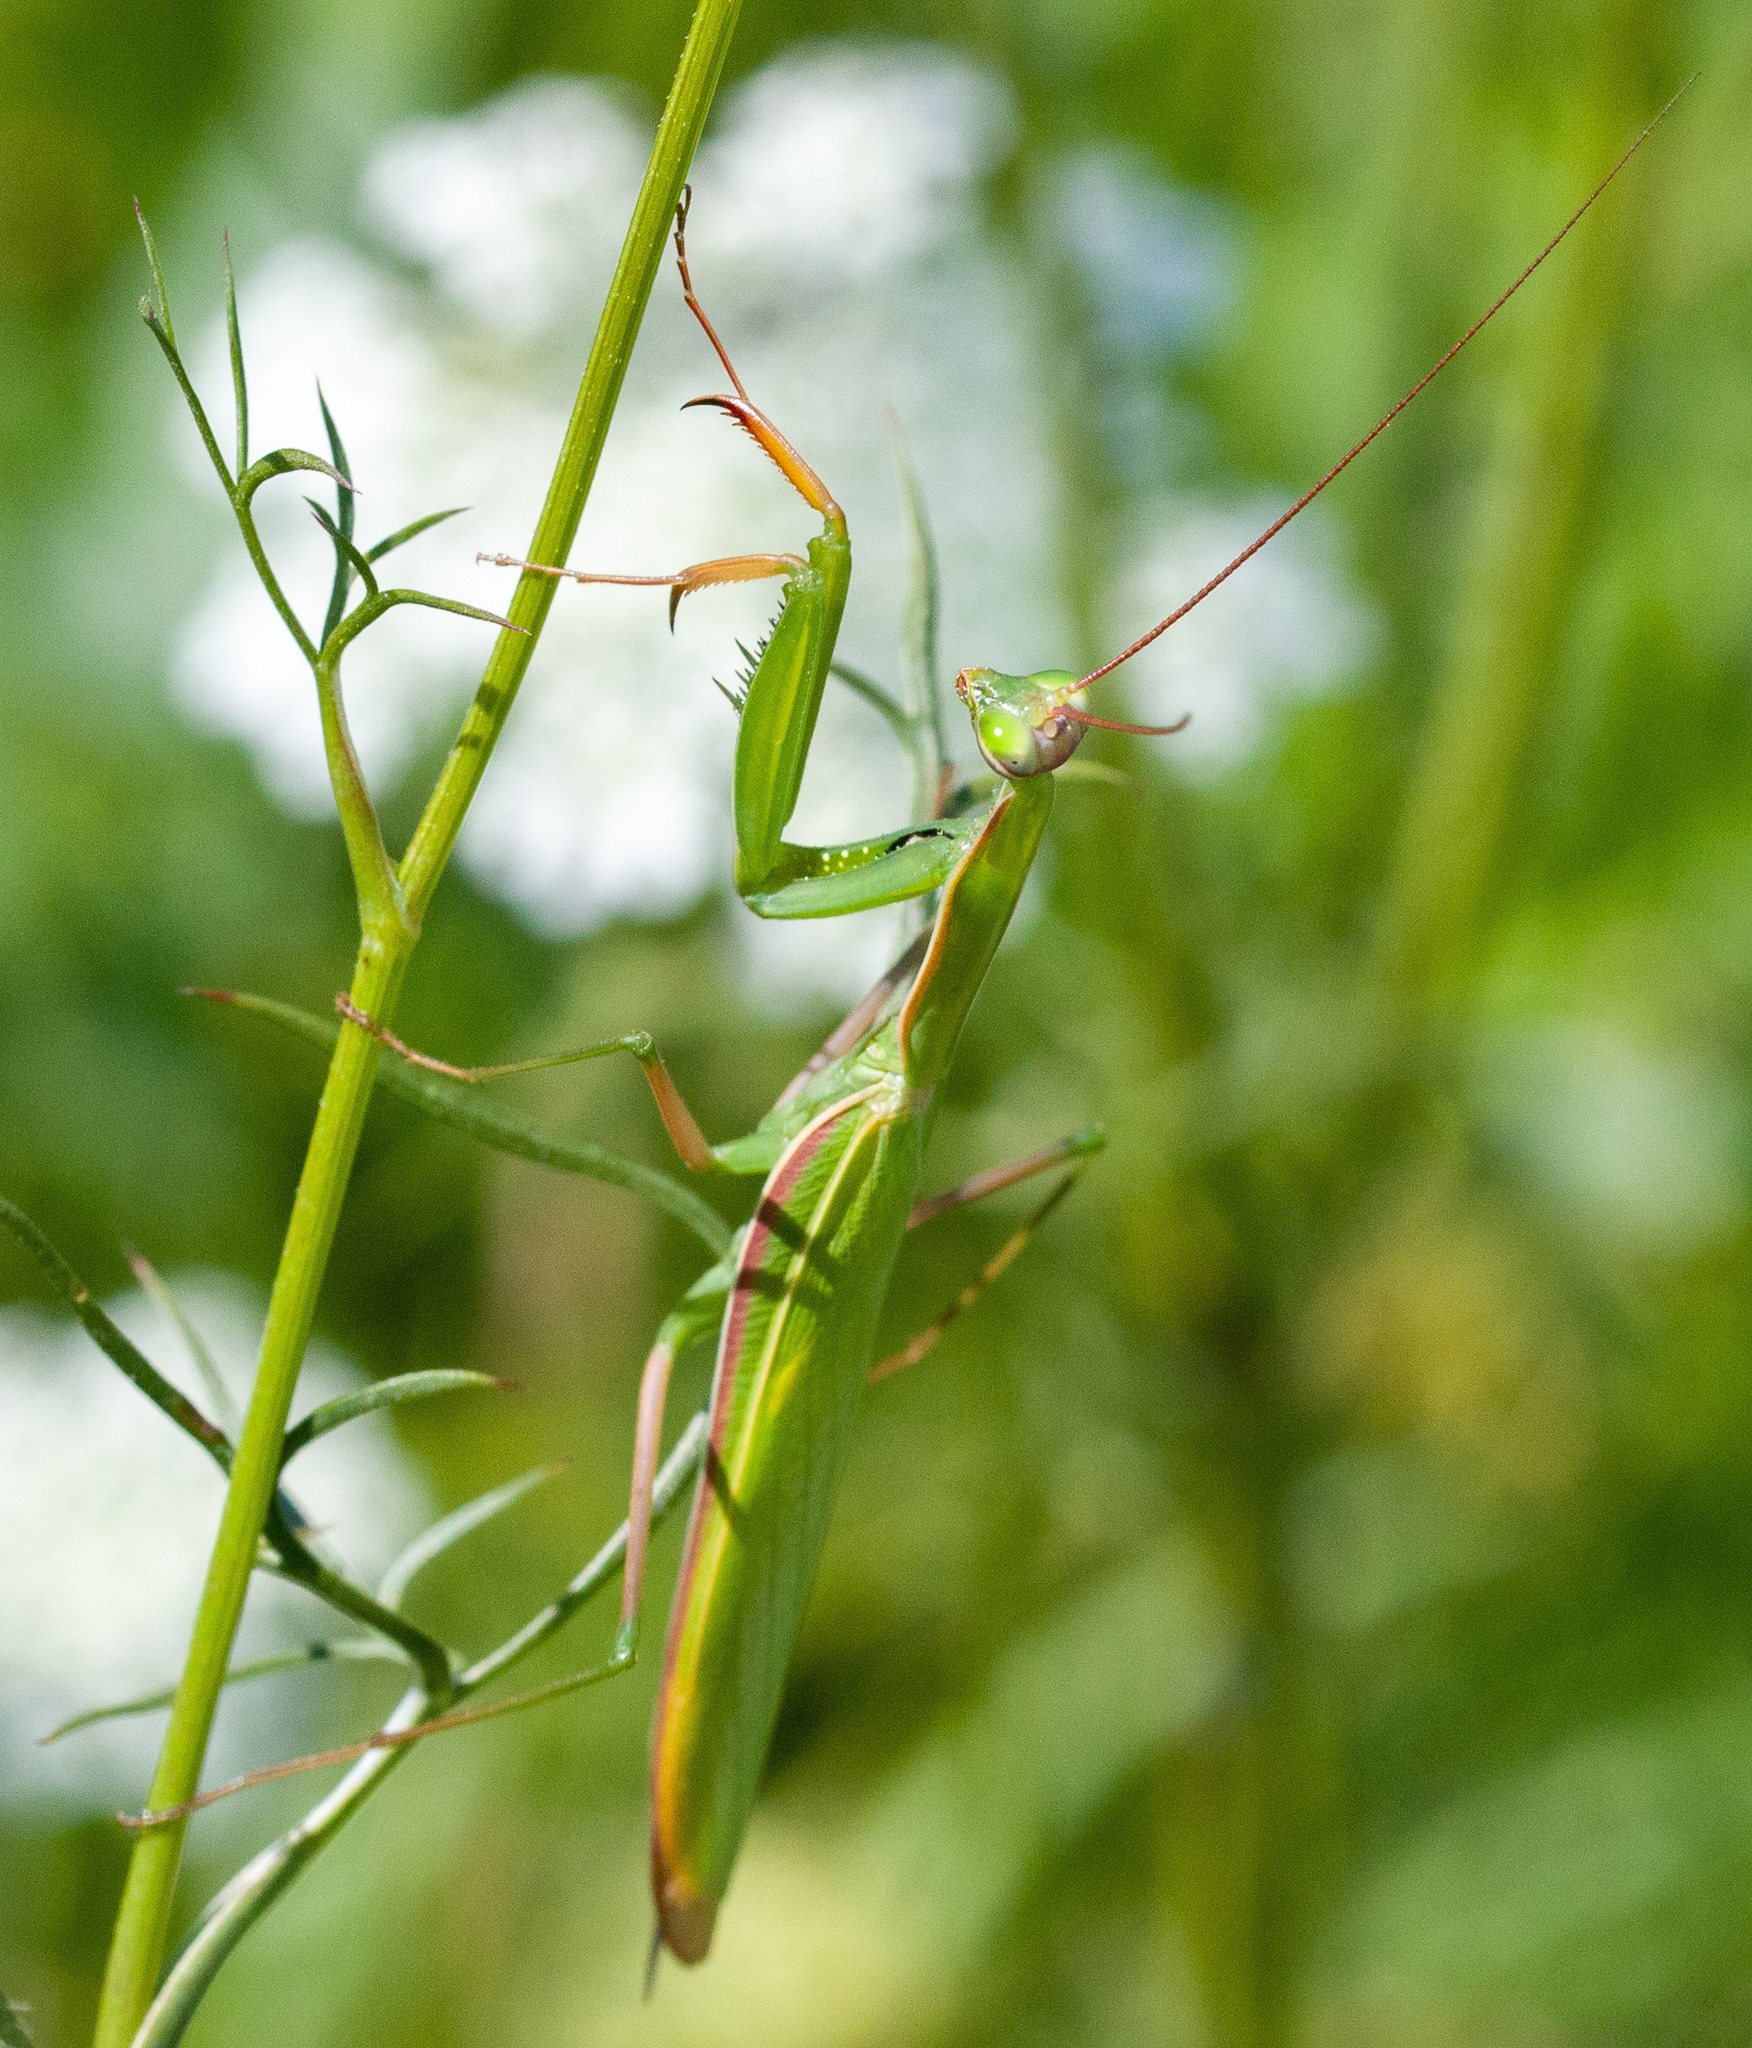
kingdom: Animalia
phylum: Arthropoda
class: Insecta
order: Mantodea
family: Mantidae
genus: Mantis
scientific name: Mantis religiosa
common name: Praying mantis
